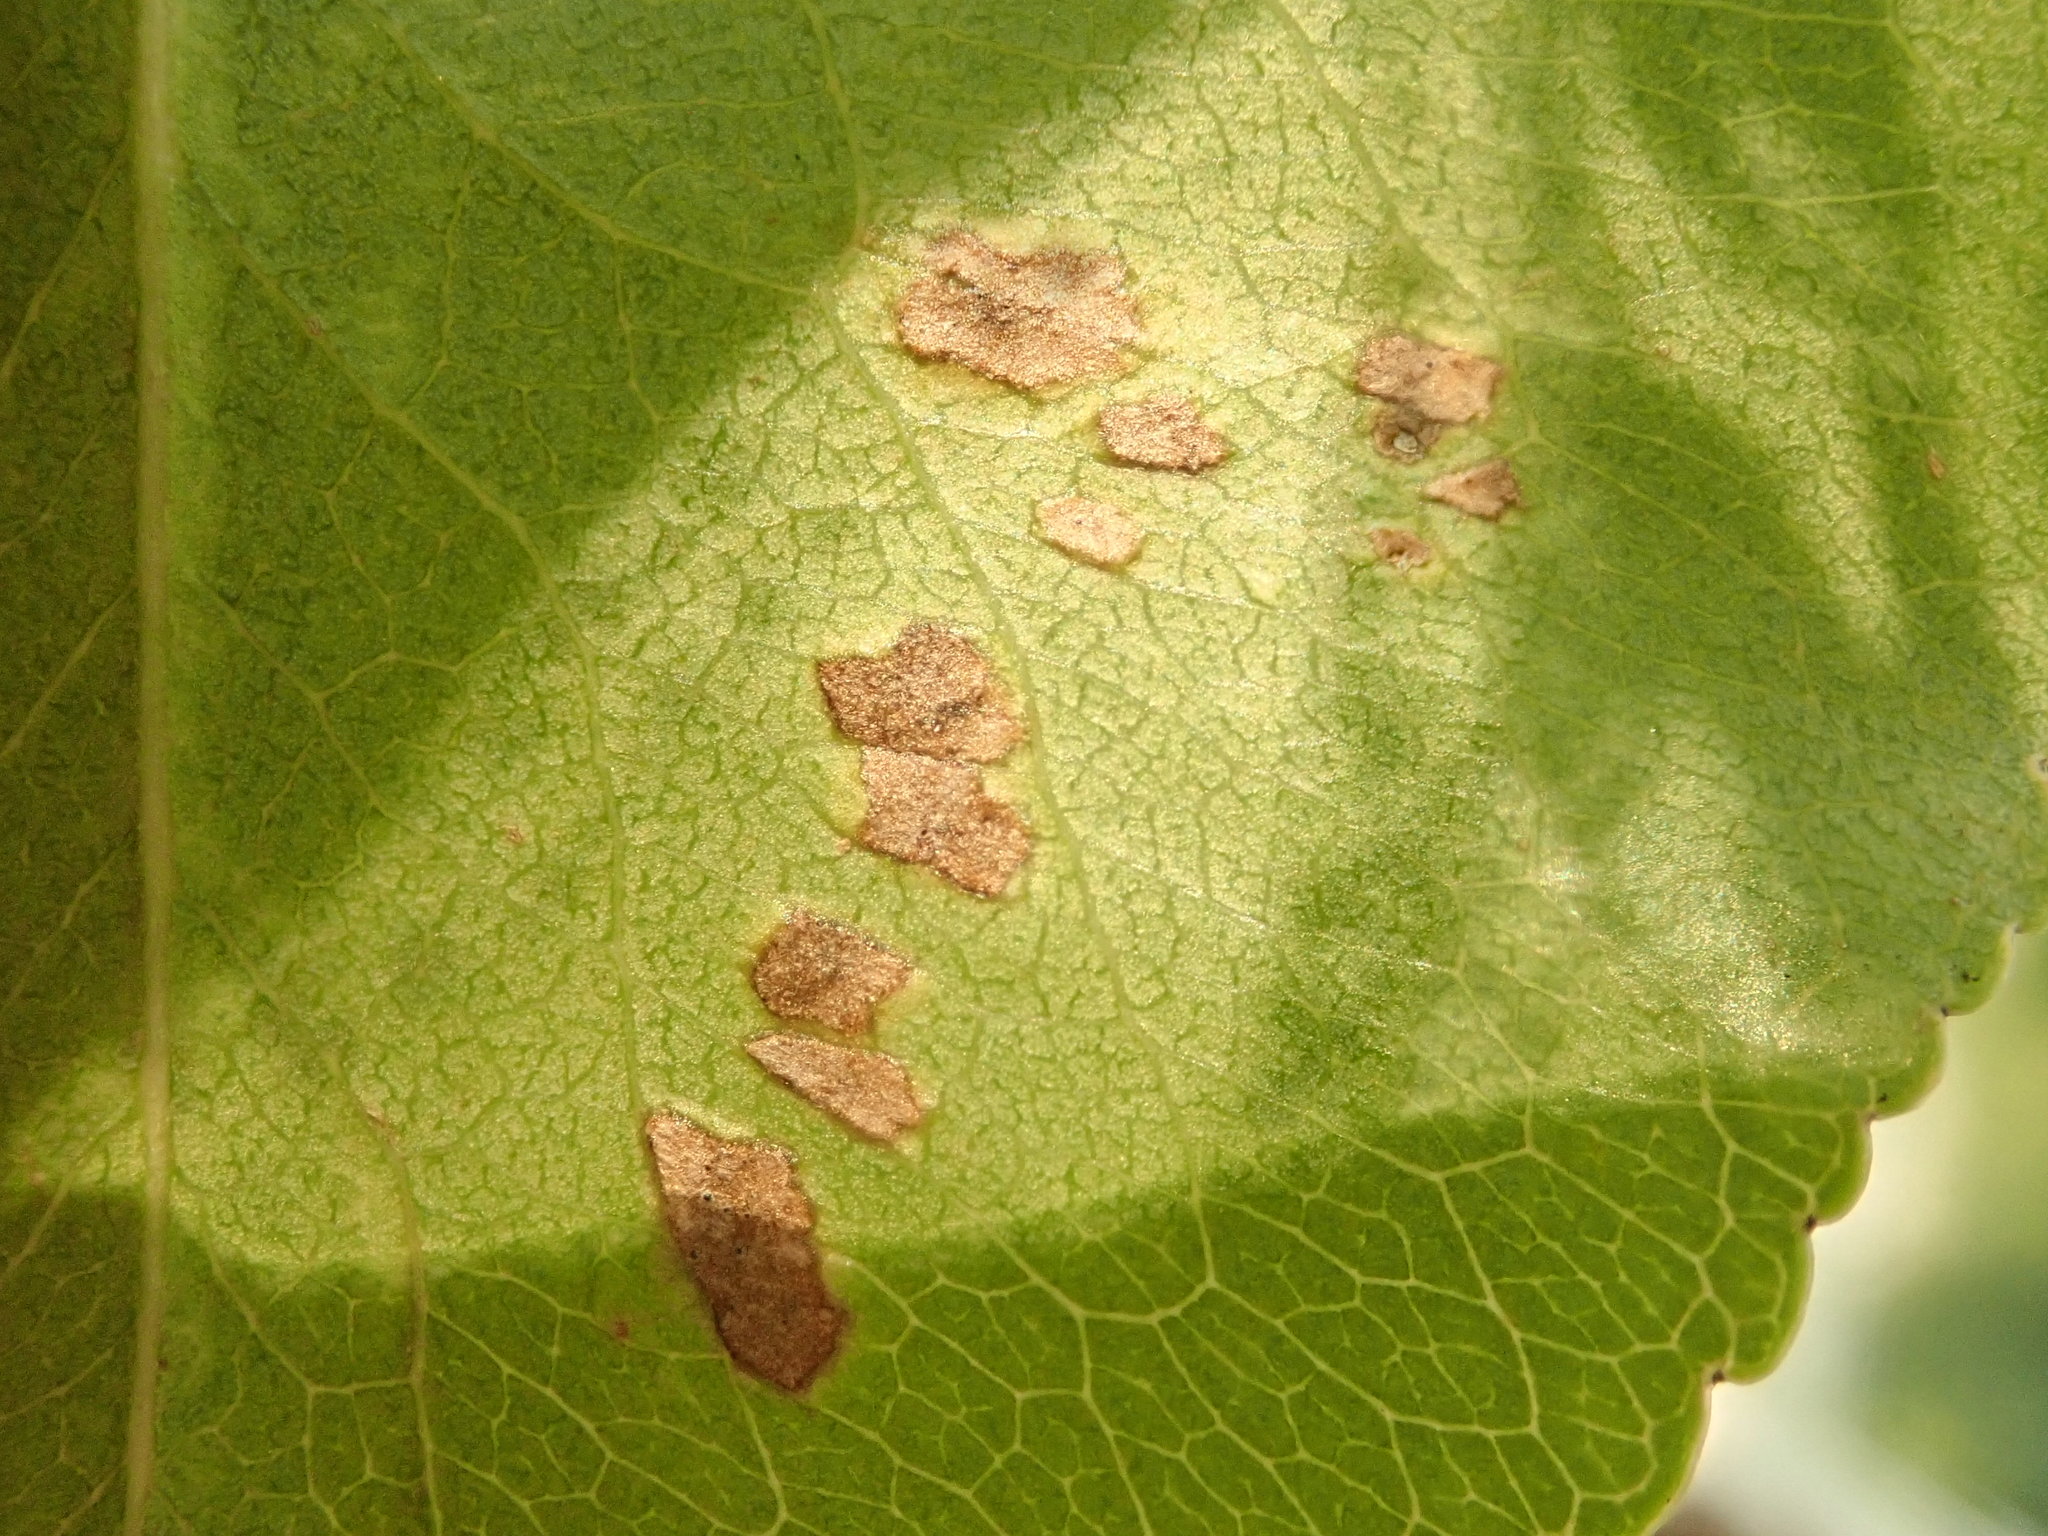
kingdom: Animalia
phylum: Arthropoda
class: Arachnida
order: Trombidiformes
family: Eriophyidae
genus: Eriophyes
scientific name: Eriophyes pyri
